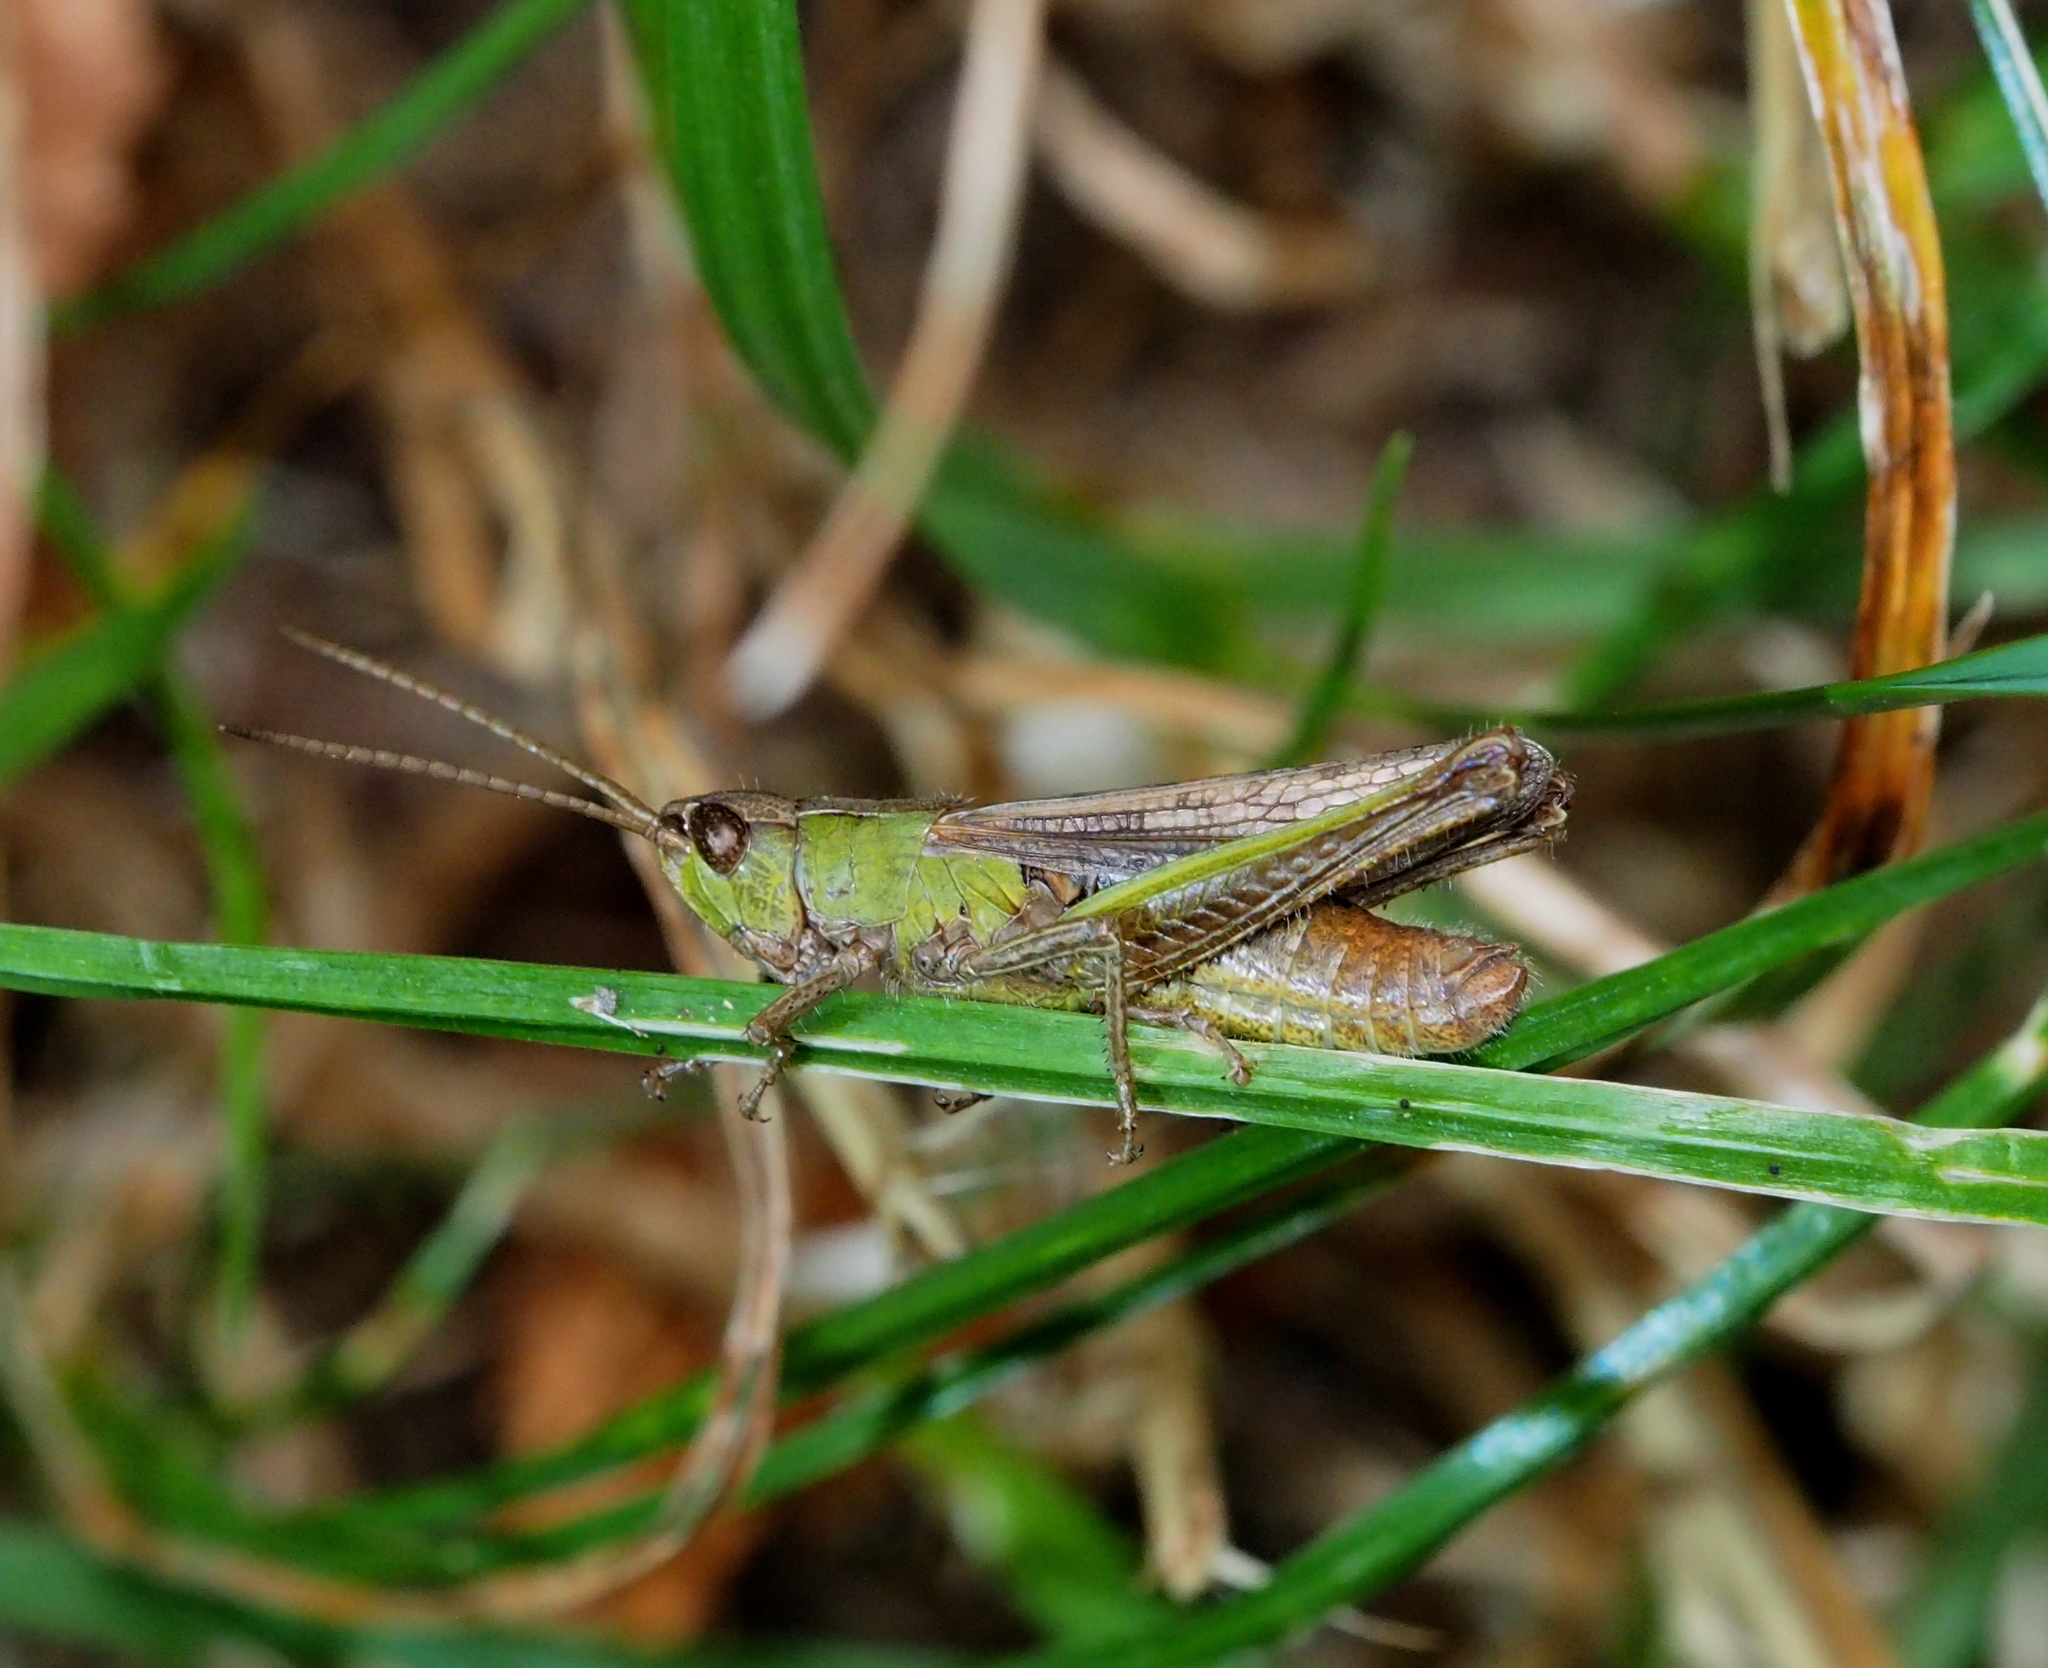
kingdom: Animalia
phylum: Arthropoda
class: Insecta
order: Orthoptera
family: Acrididae
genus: Chorthippus
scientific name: Chorthippus dorsatus
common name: Steppe grasshopper
